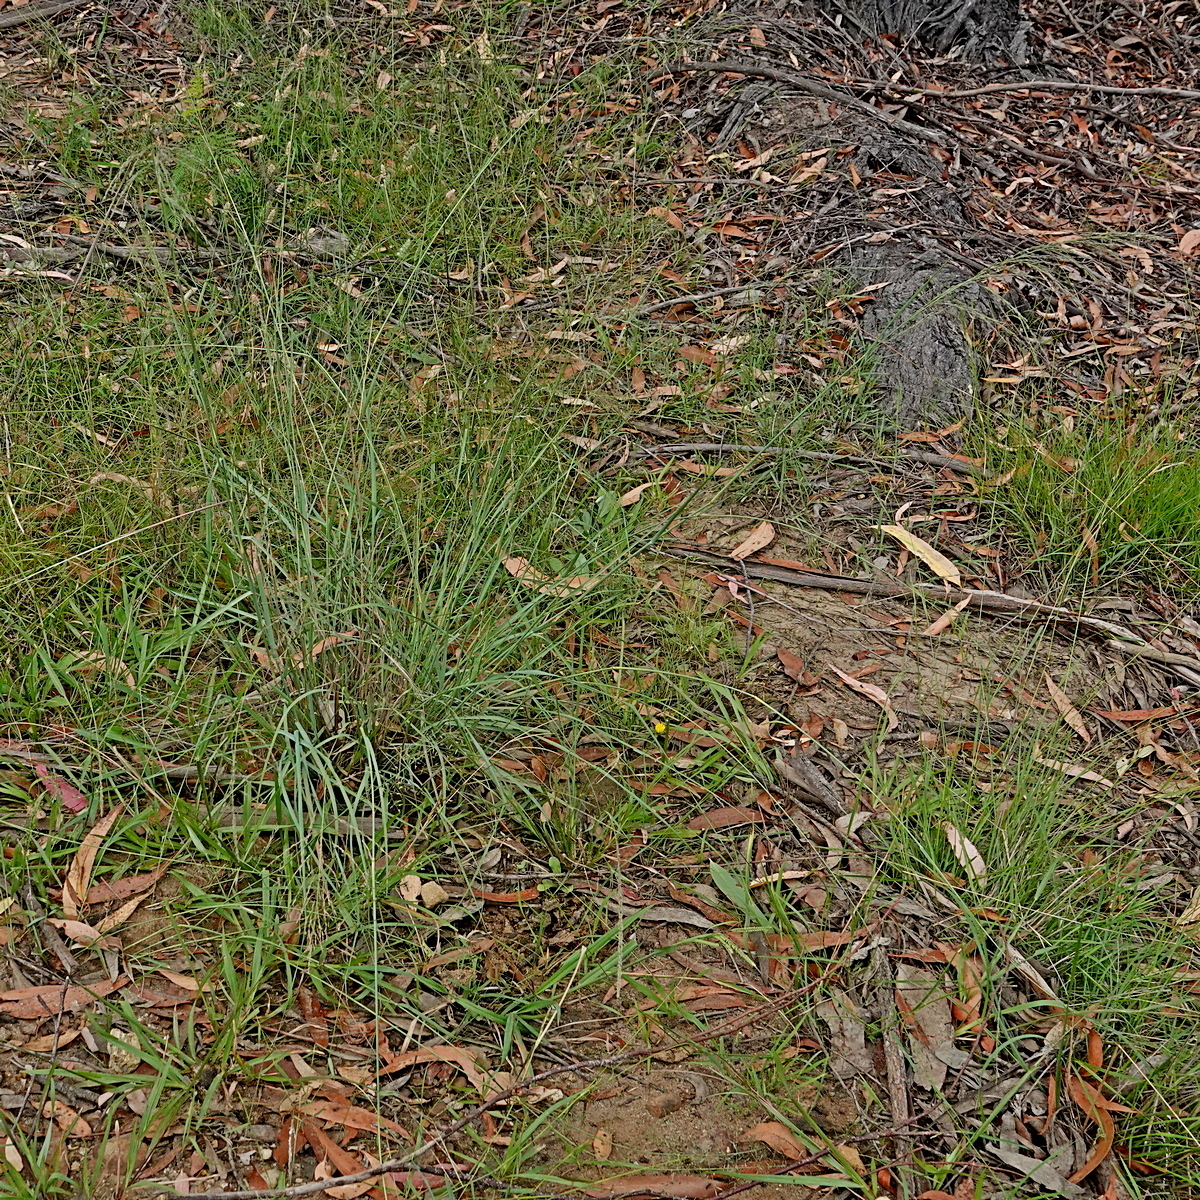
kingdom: Plantae
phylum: Tracheophyta
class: Liliopsida
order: Poales
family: Poaceae
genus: Eragrostis
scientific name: Eragrostis curvula
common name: African love-grass
